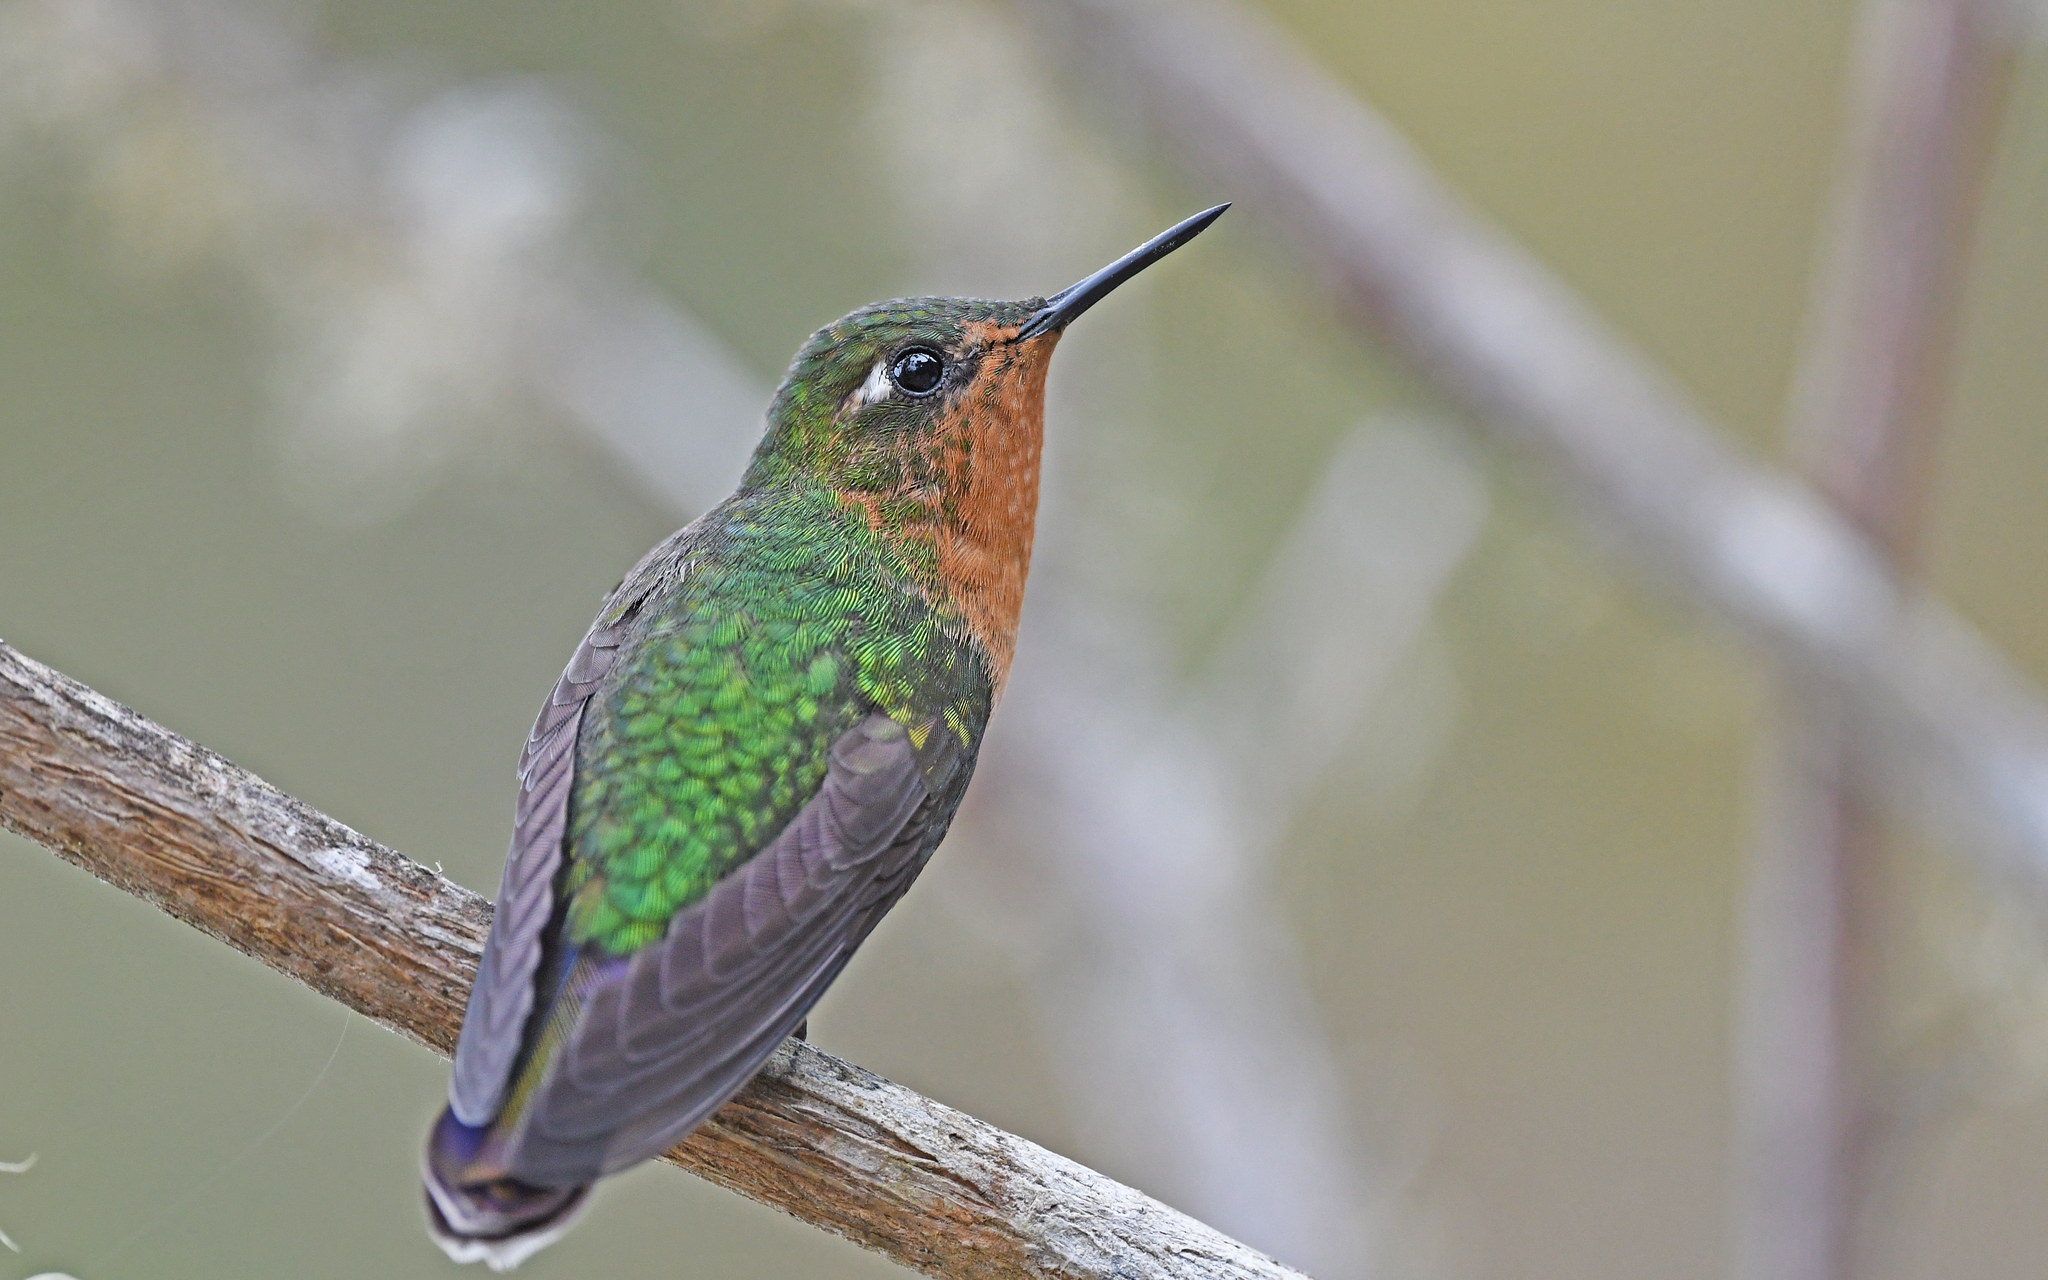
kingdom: Animalia
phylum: Chordata
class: Aves
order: Apodiformes
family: Trochilidae
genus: Metallura
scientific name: Metallura tyrianthina
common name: Tyrian metaltail
